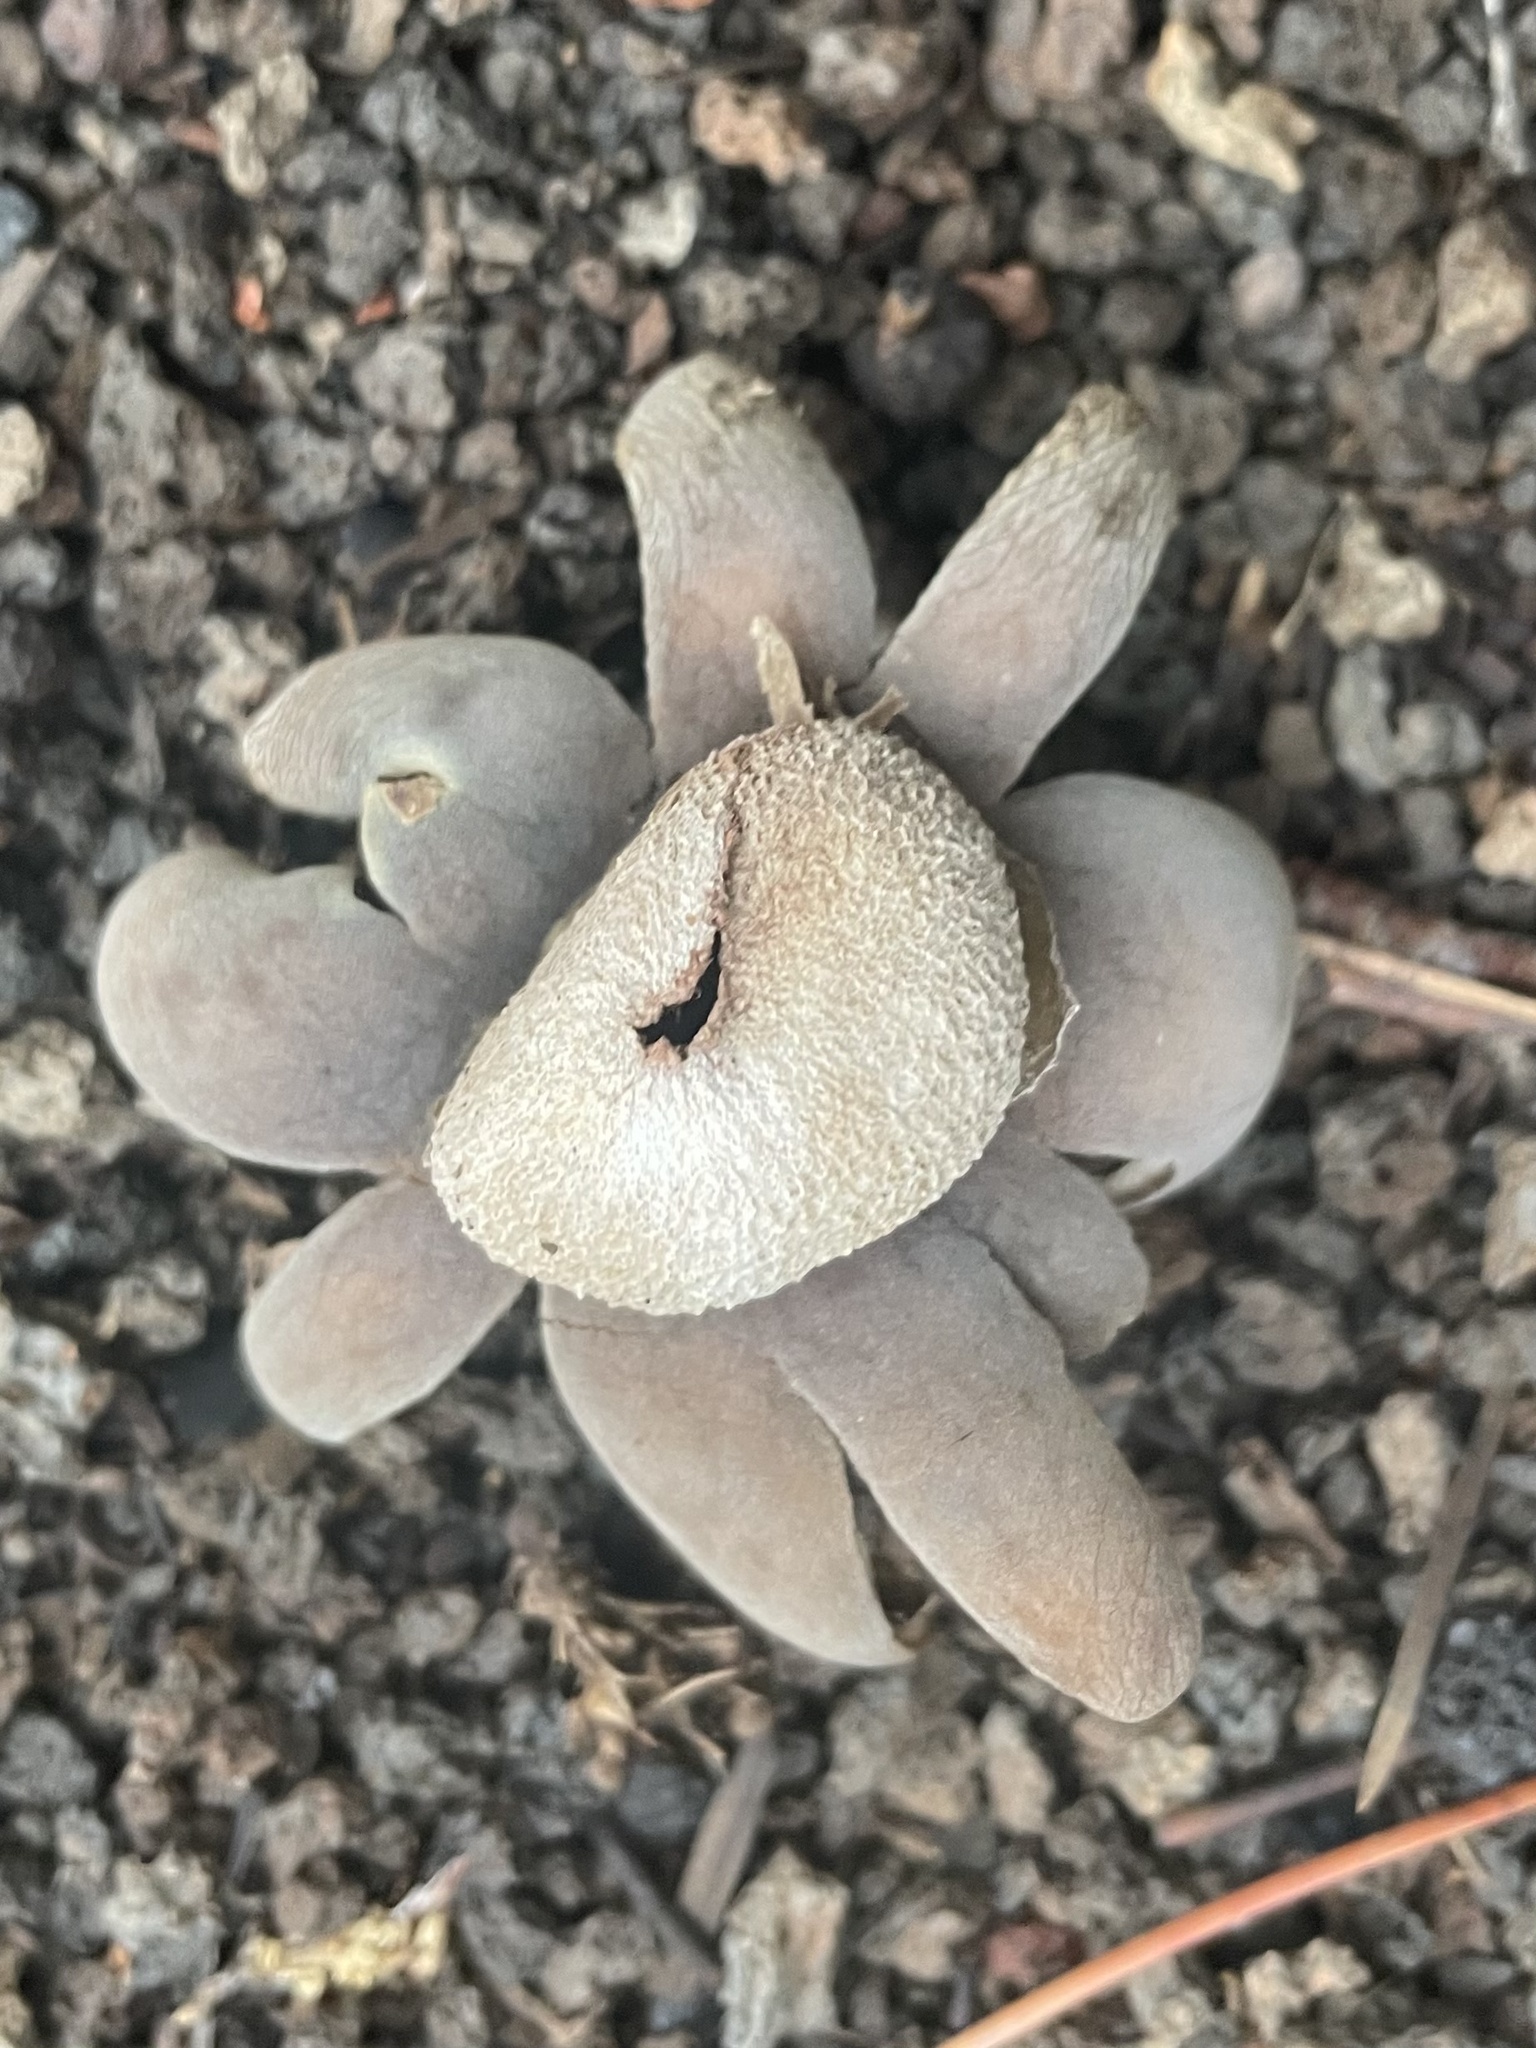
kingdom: Fungi
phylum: Basidiomycota
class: Agaricomycetes
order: Boletales
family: Diplocystidiaceae
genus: Astraeus
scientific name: Astraeus
